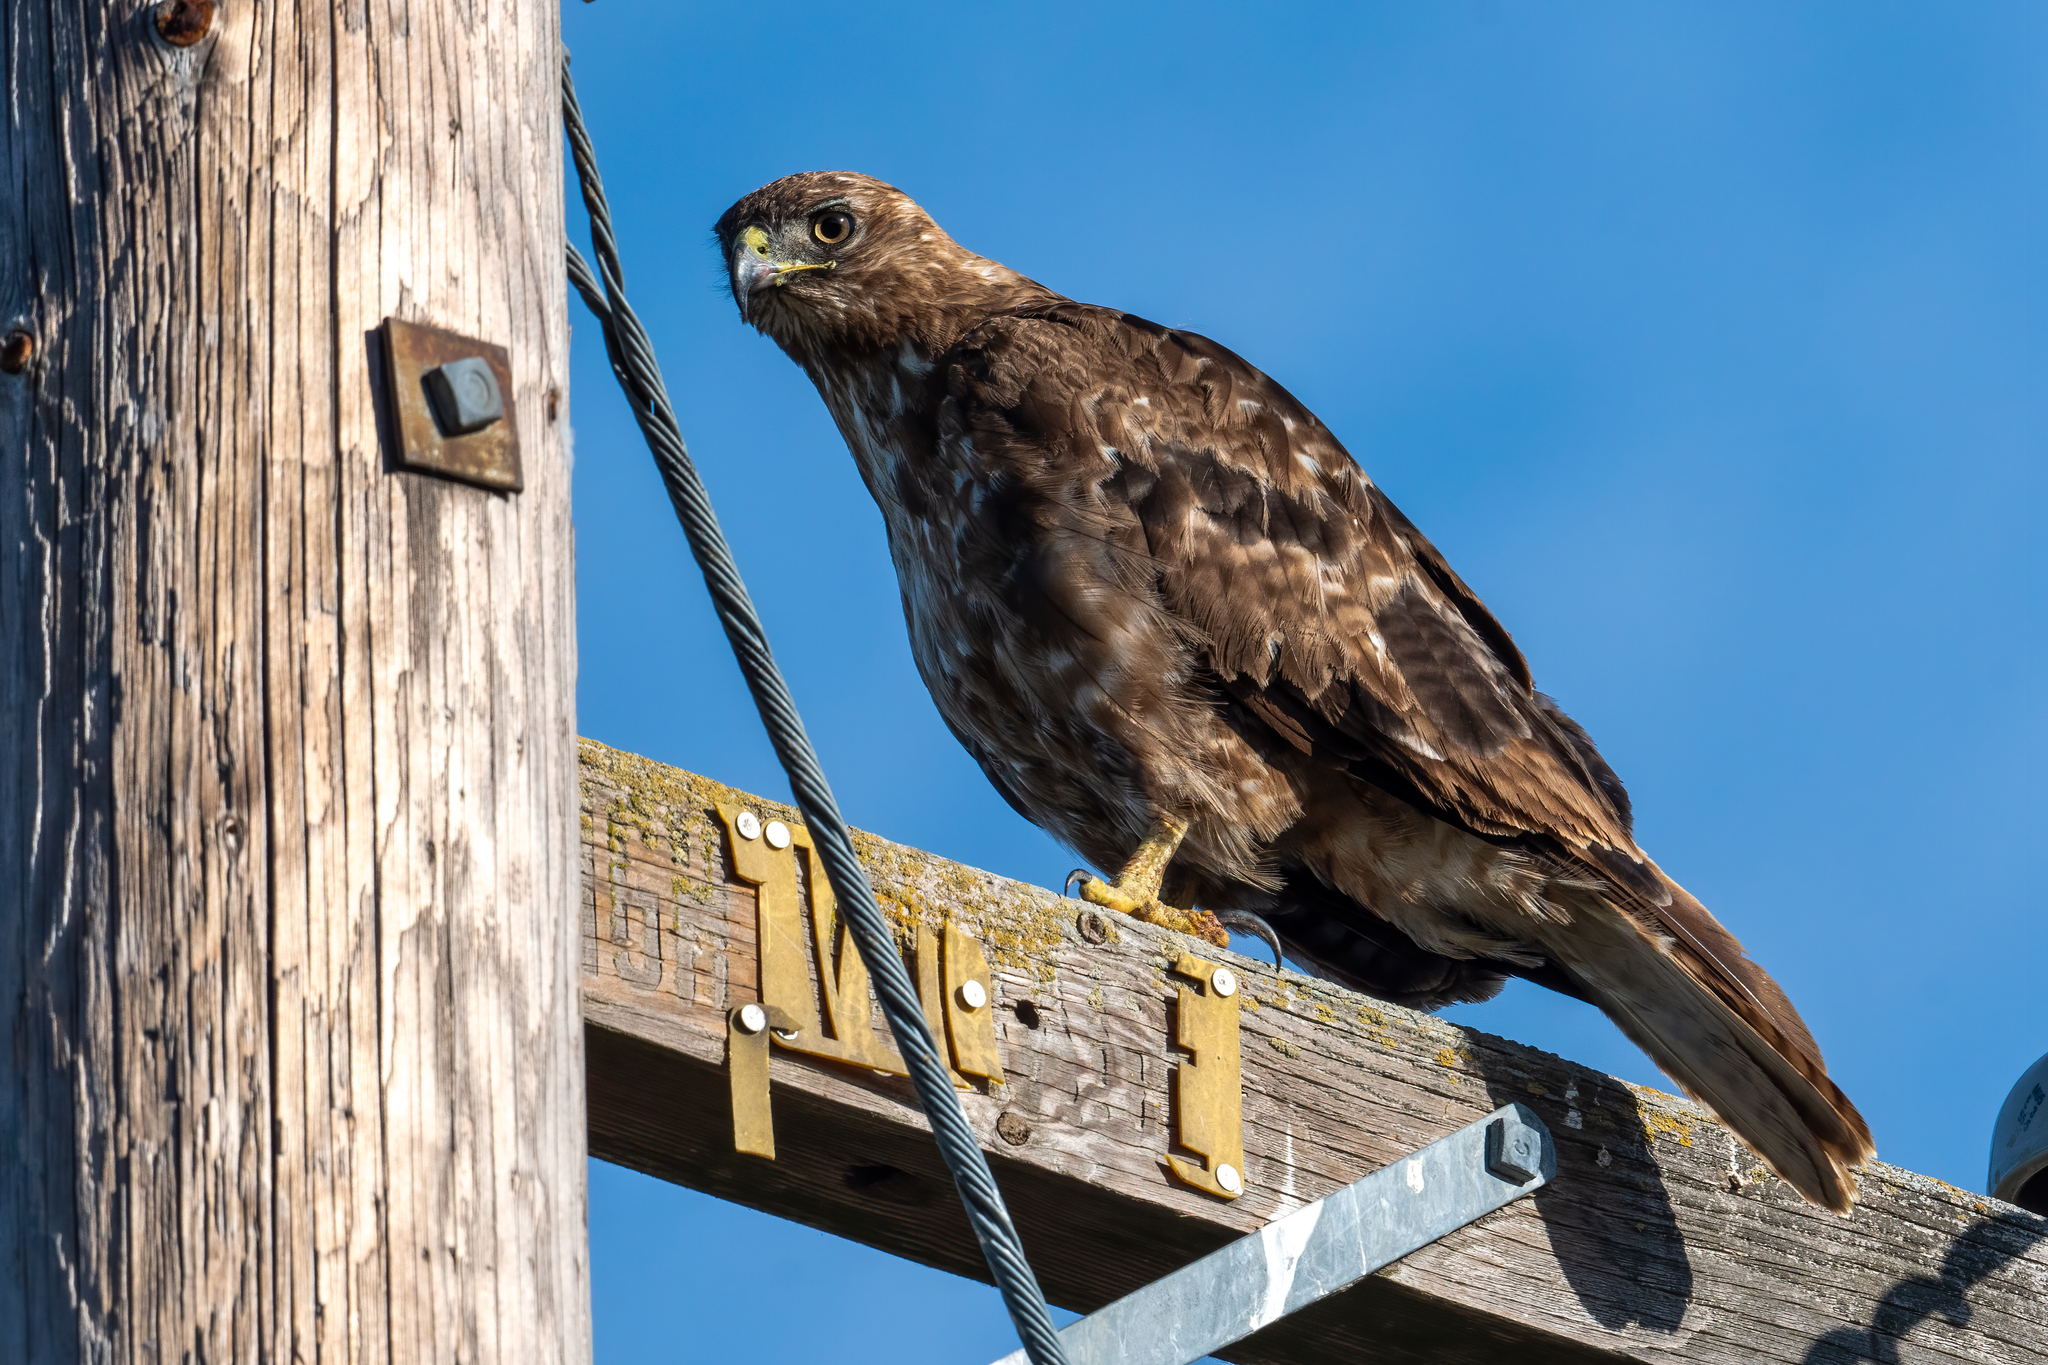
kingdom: Animalia
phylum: Chordata
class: Aves
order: Accipitriformes
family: Accipitridae
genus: Buteo
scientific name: Buteo jamaicensis
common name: Red-tailed hawk
